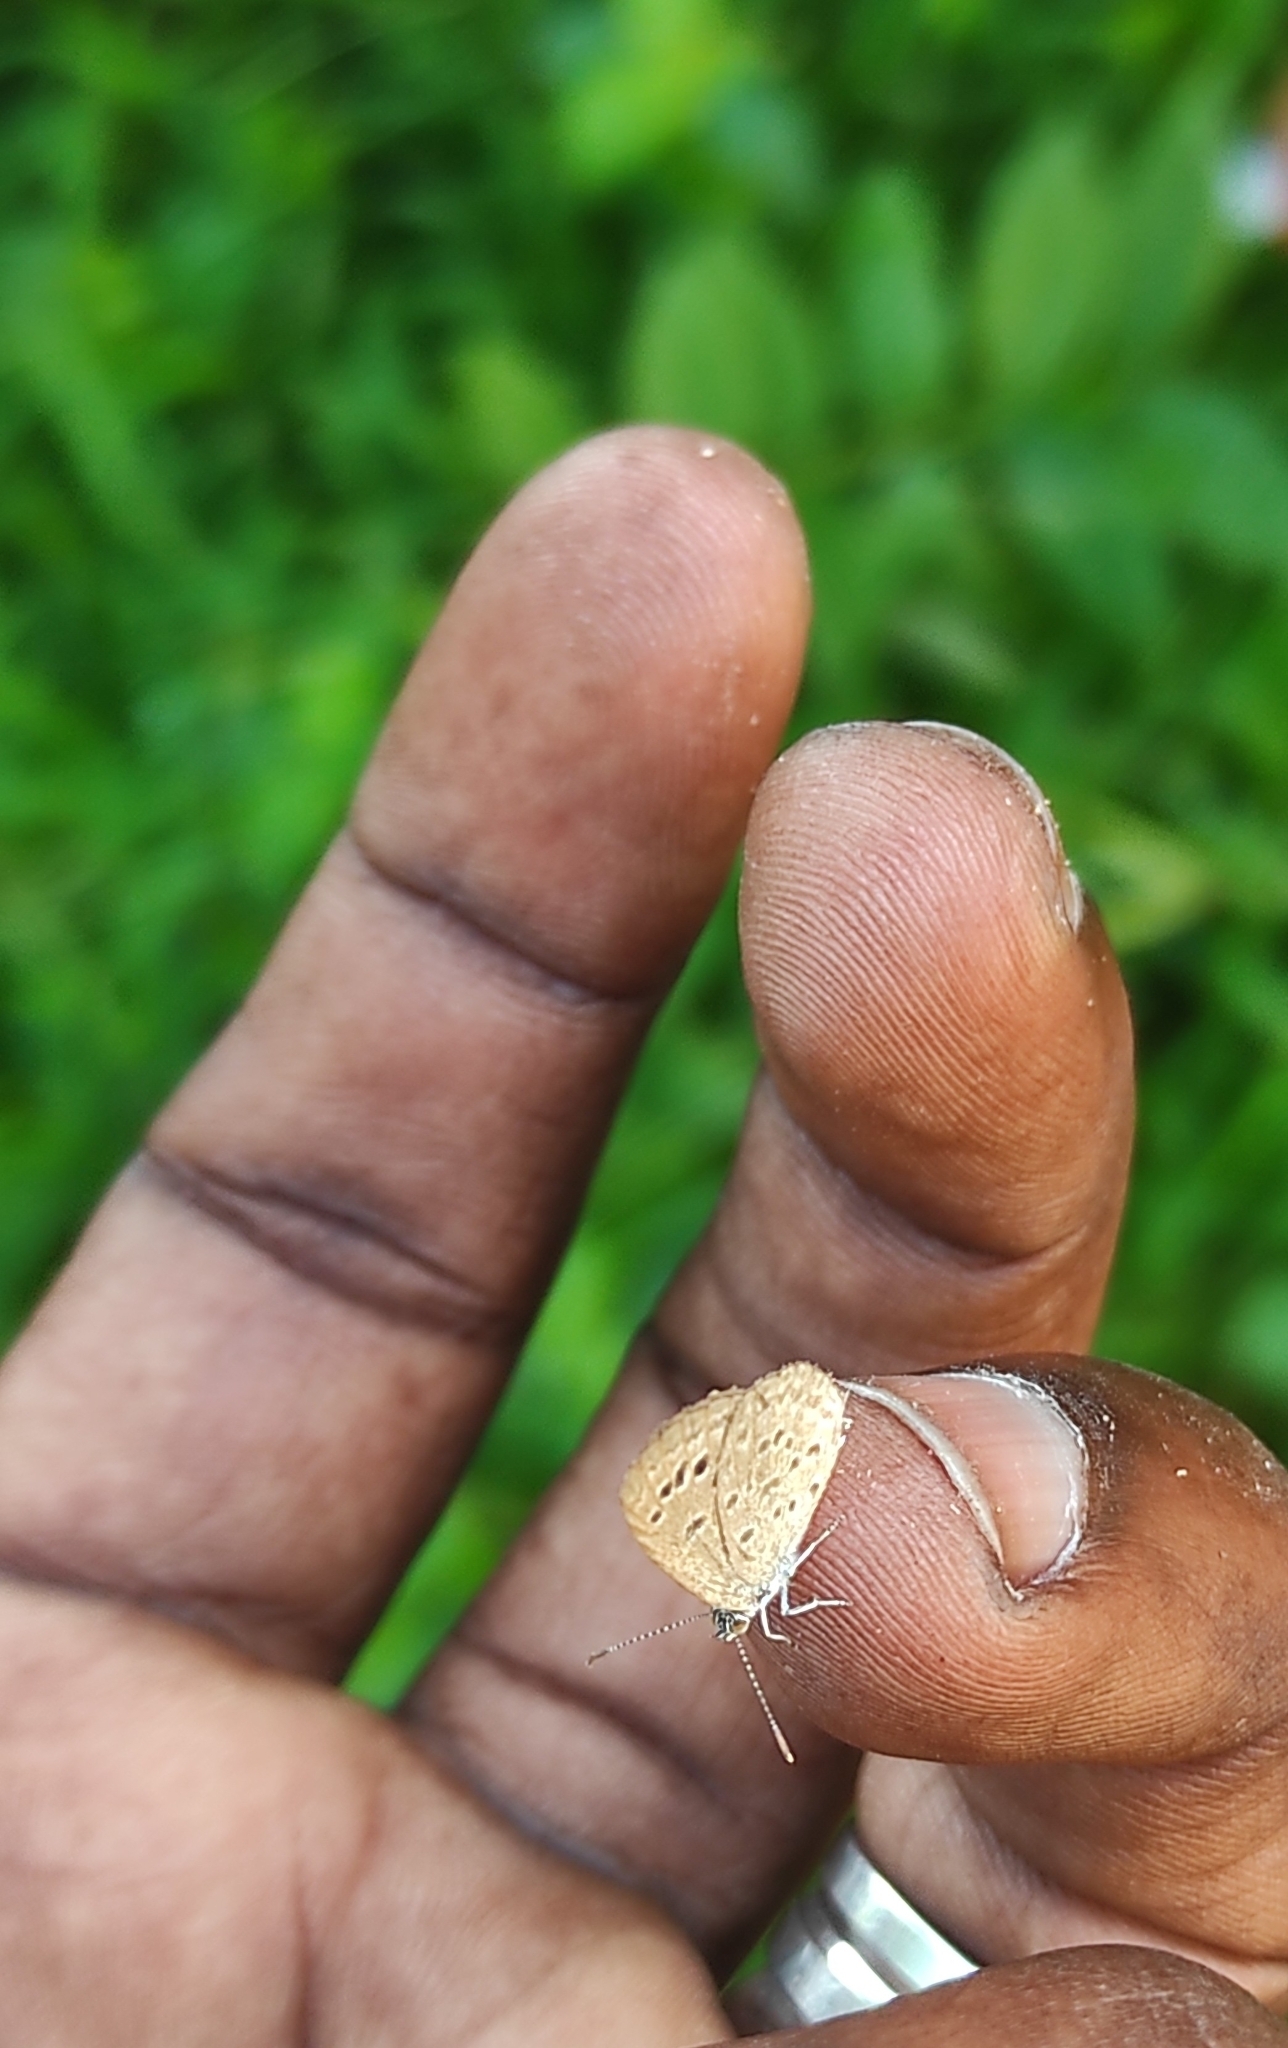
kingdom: Animalia
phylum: Arthropoda
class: Insecta
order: Lepidoptera
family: Lycaenidae
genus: Zizina
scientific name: Zizina otis
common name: Lesser grass blue
